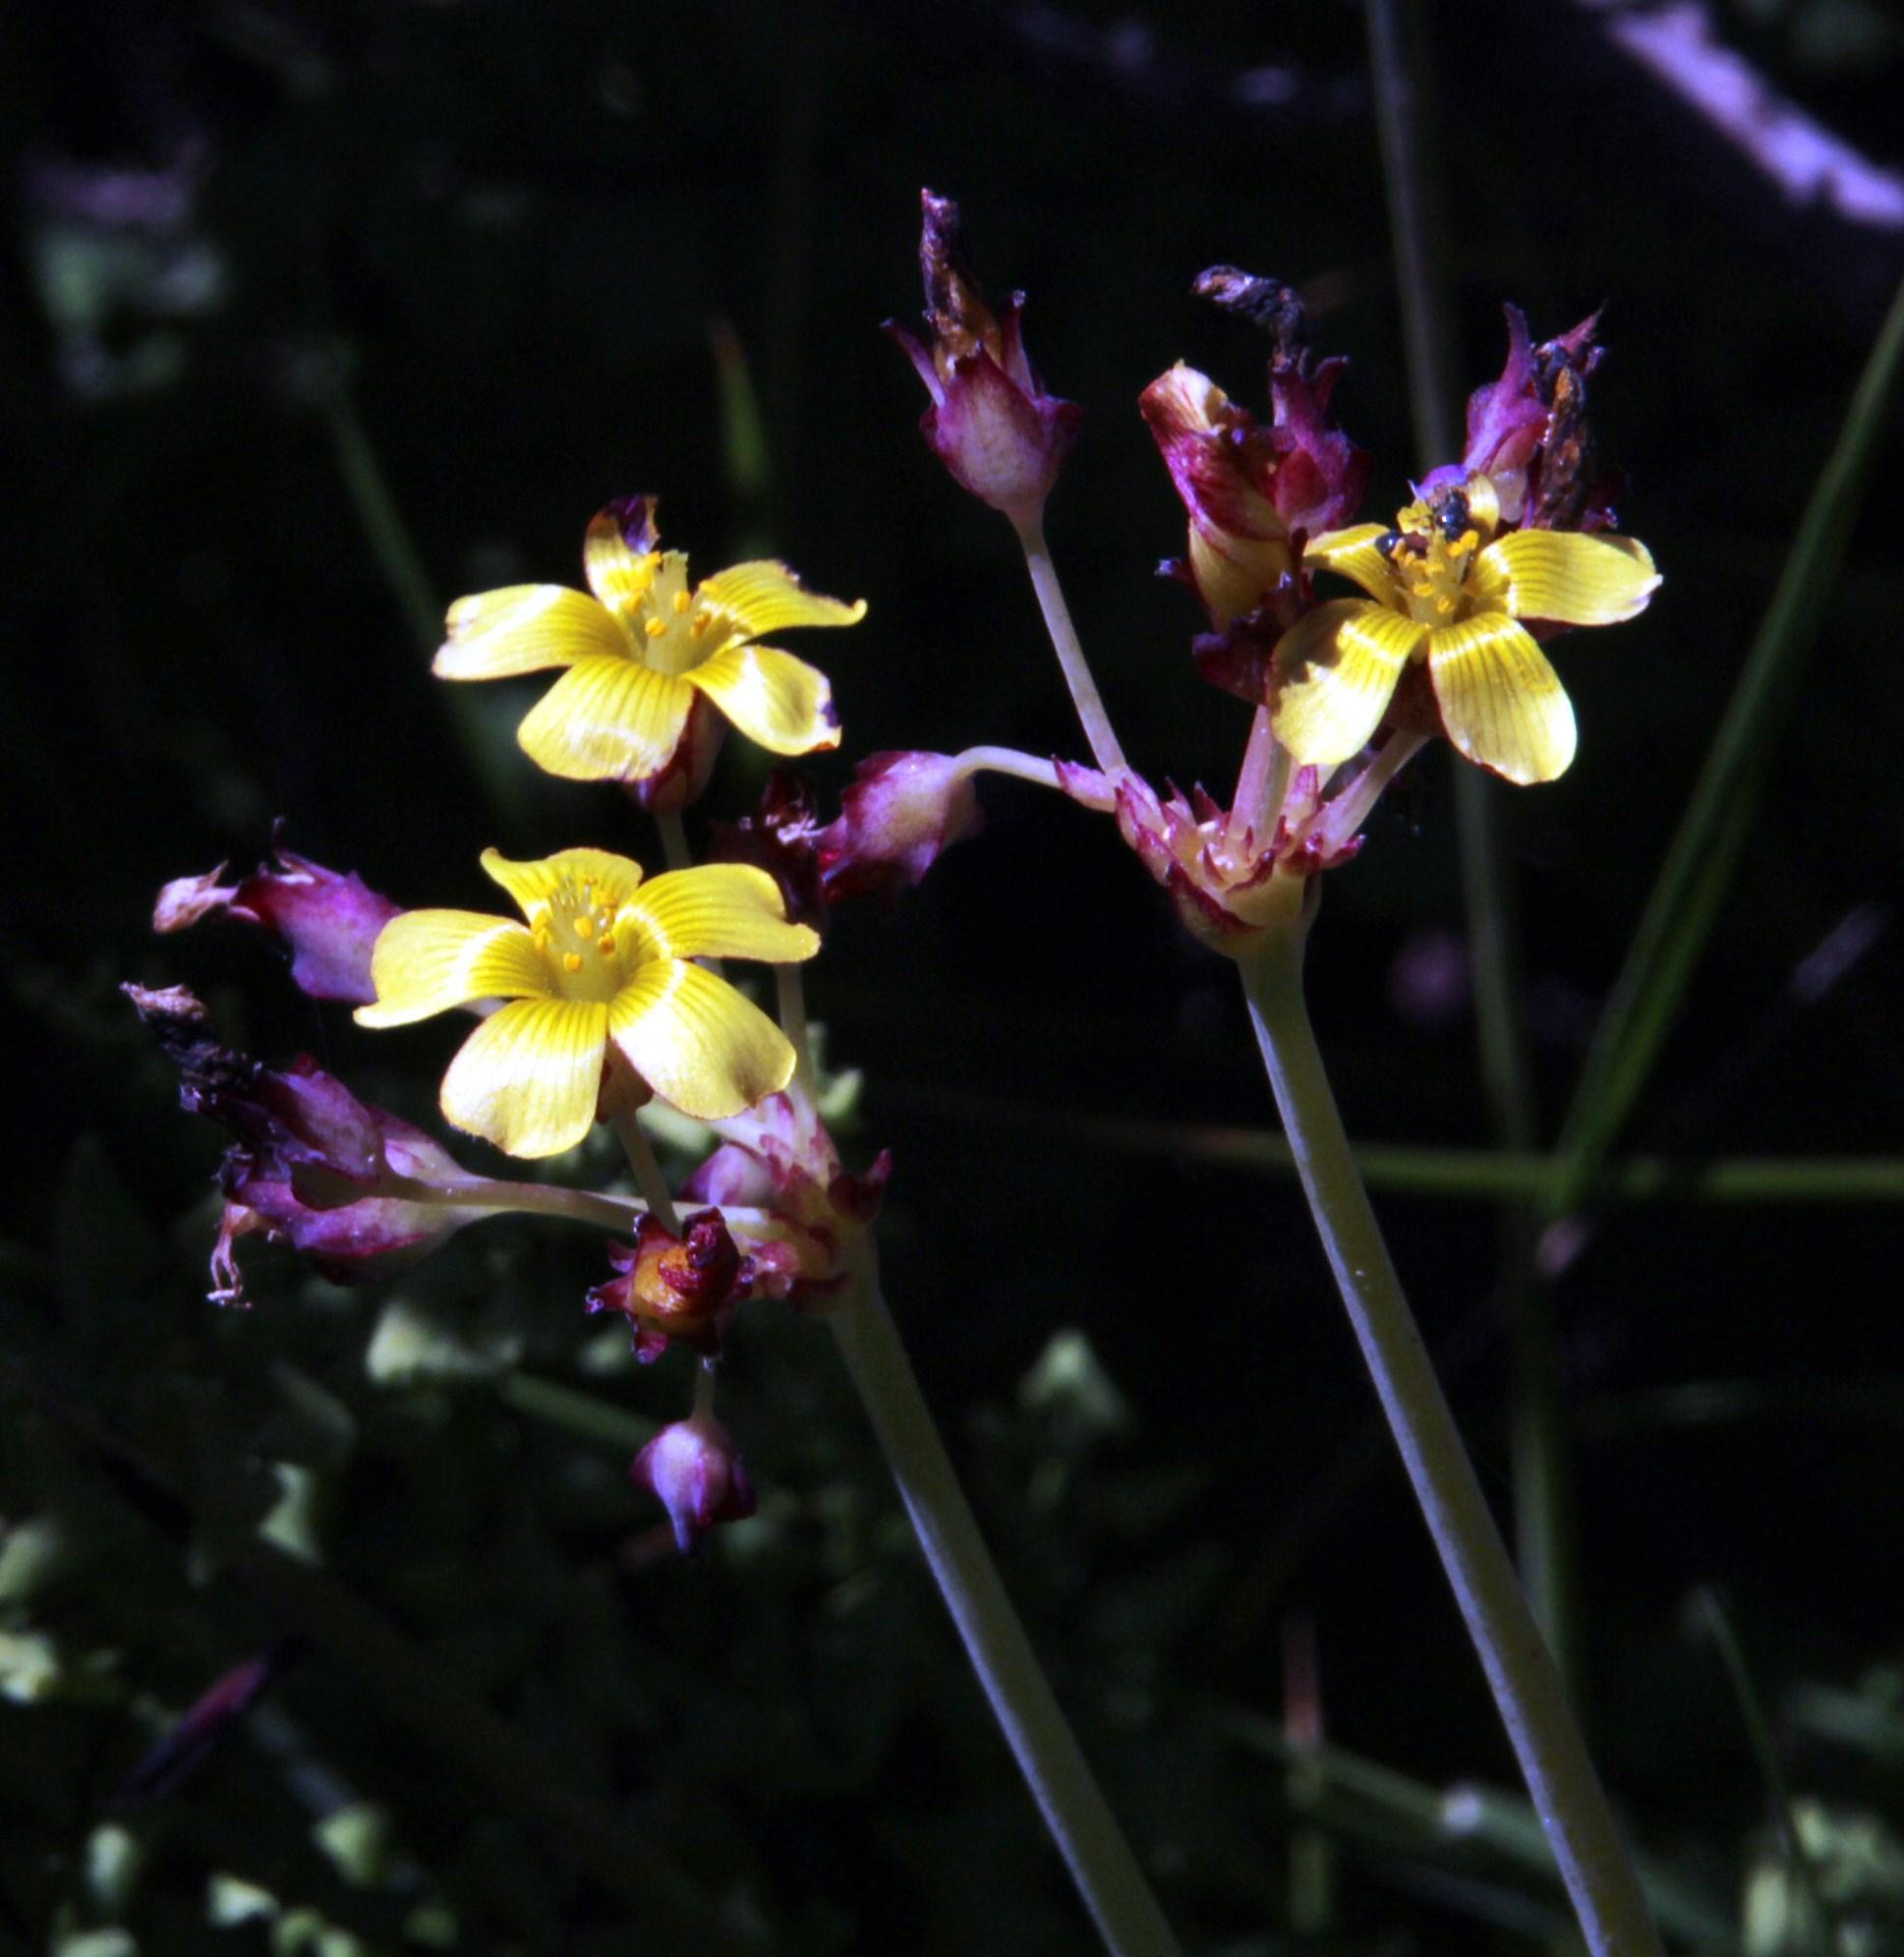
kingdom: Plantae
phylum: Tracheophyta
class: Magnoliopsida
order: Oxalidales
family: Oxalidaceae
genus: Oxalis
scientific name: Oxalis tortuosa
